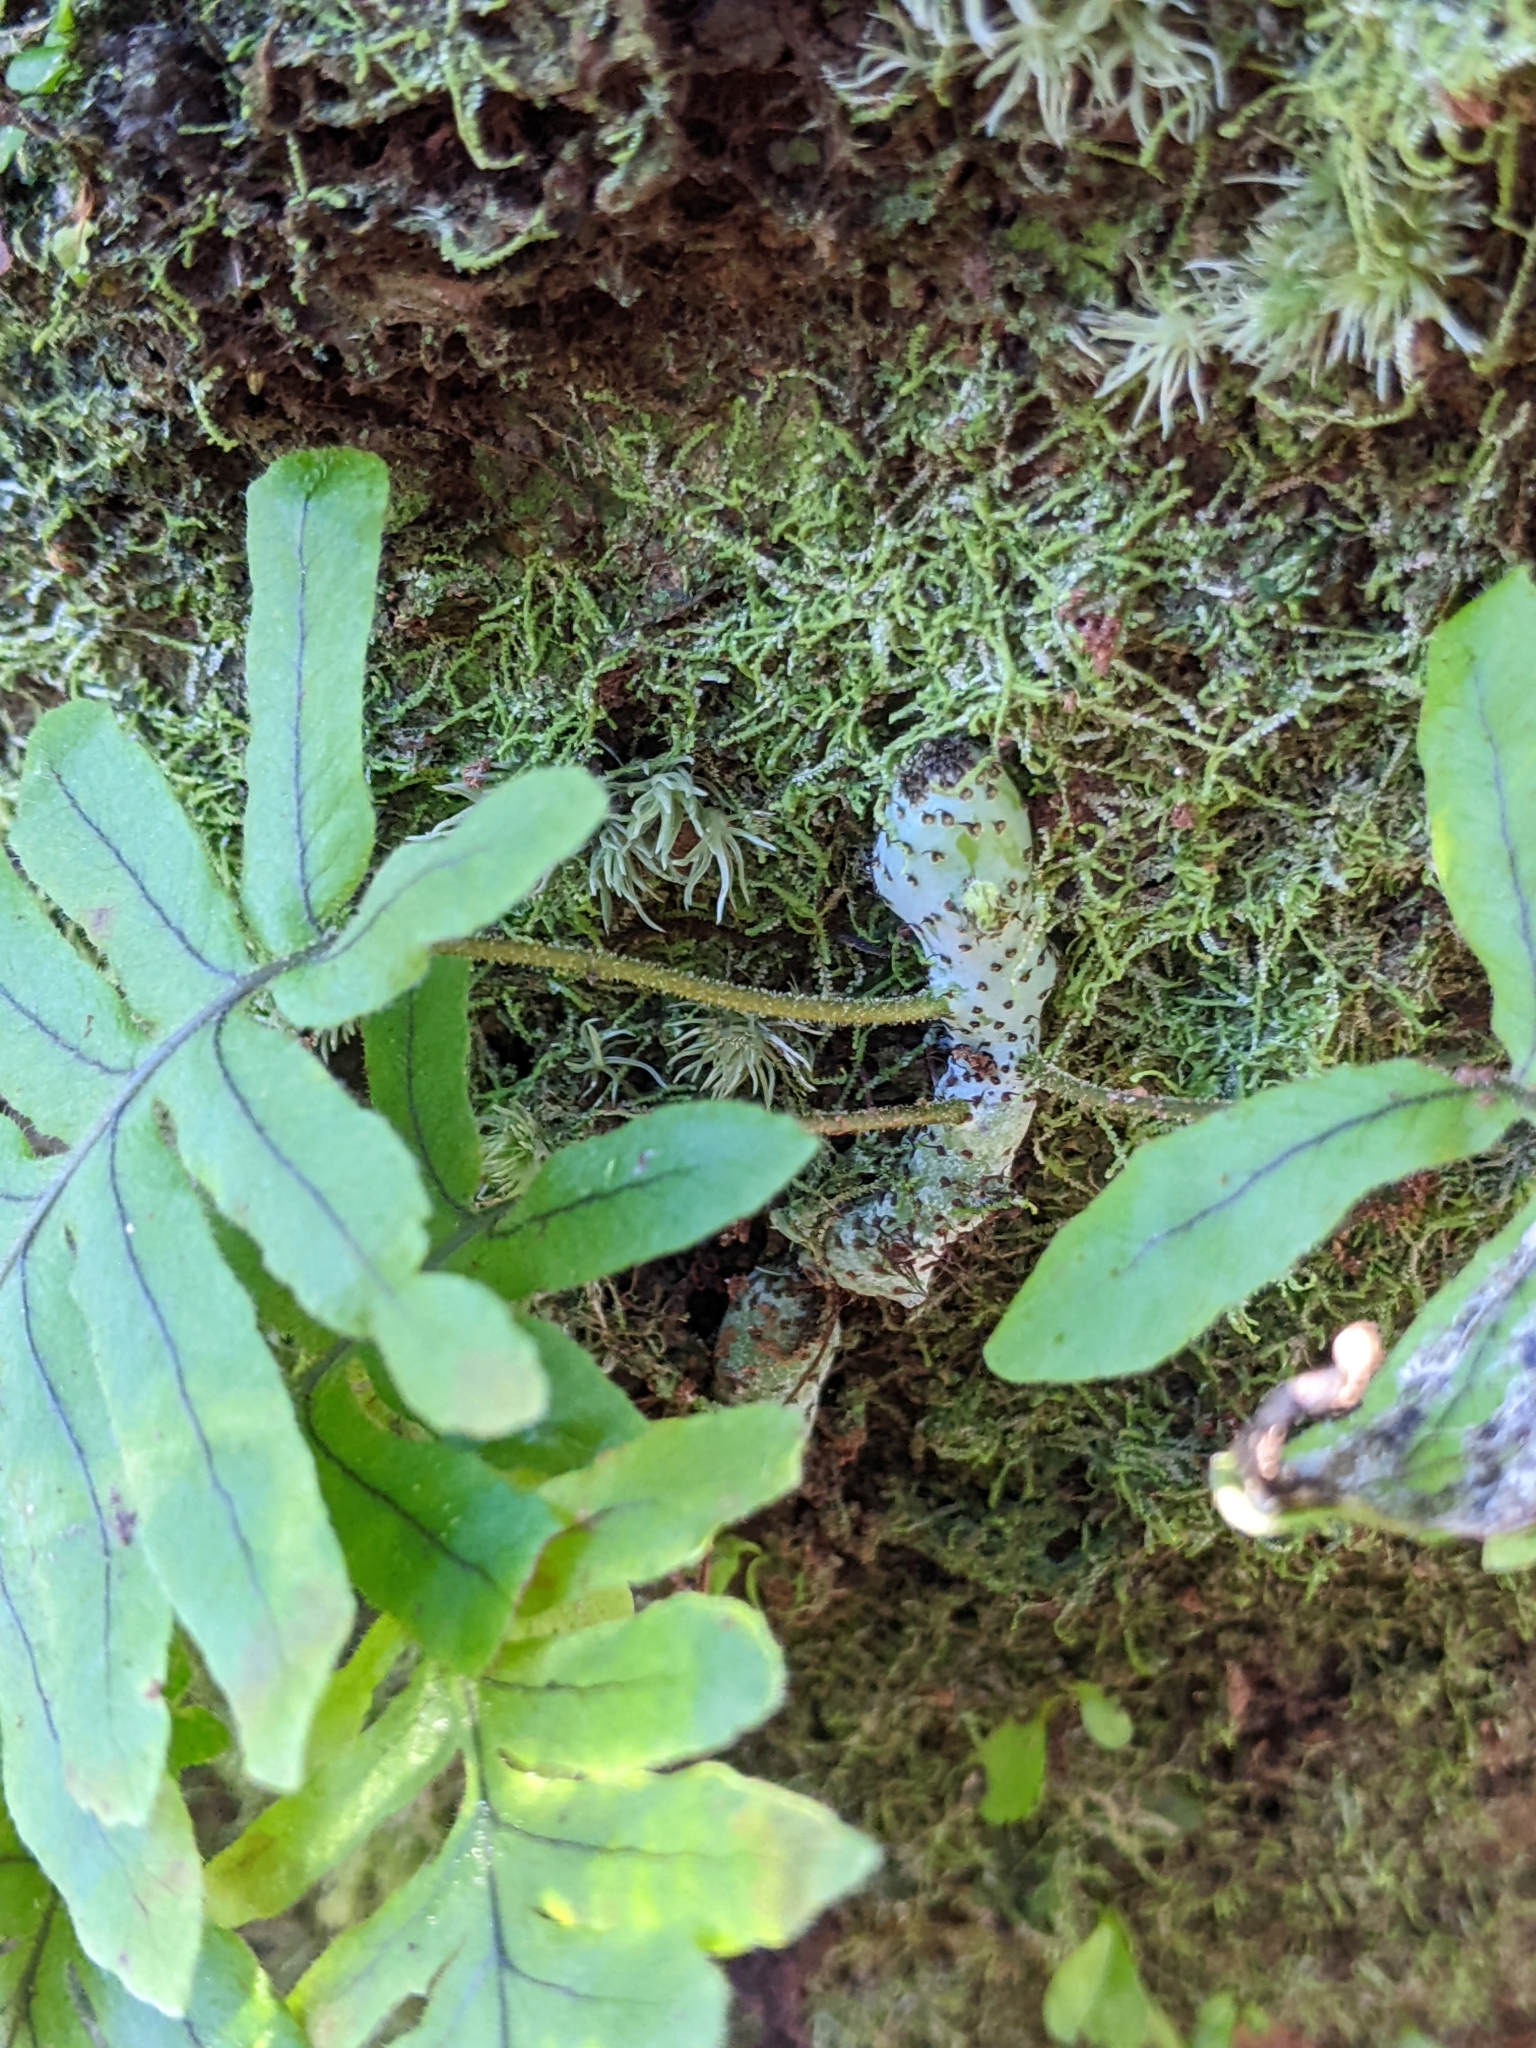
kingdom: Plantae
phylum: Tracheophyta
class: Polypodiopsida
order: Polypodiales
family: Polypodiaceae
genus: Goniophlebium
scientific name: Goniophlebium formosanum
